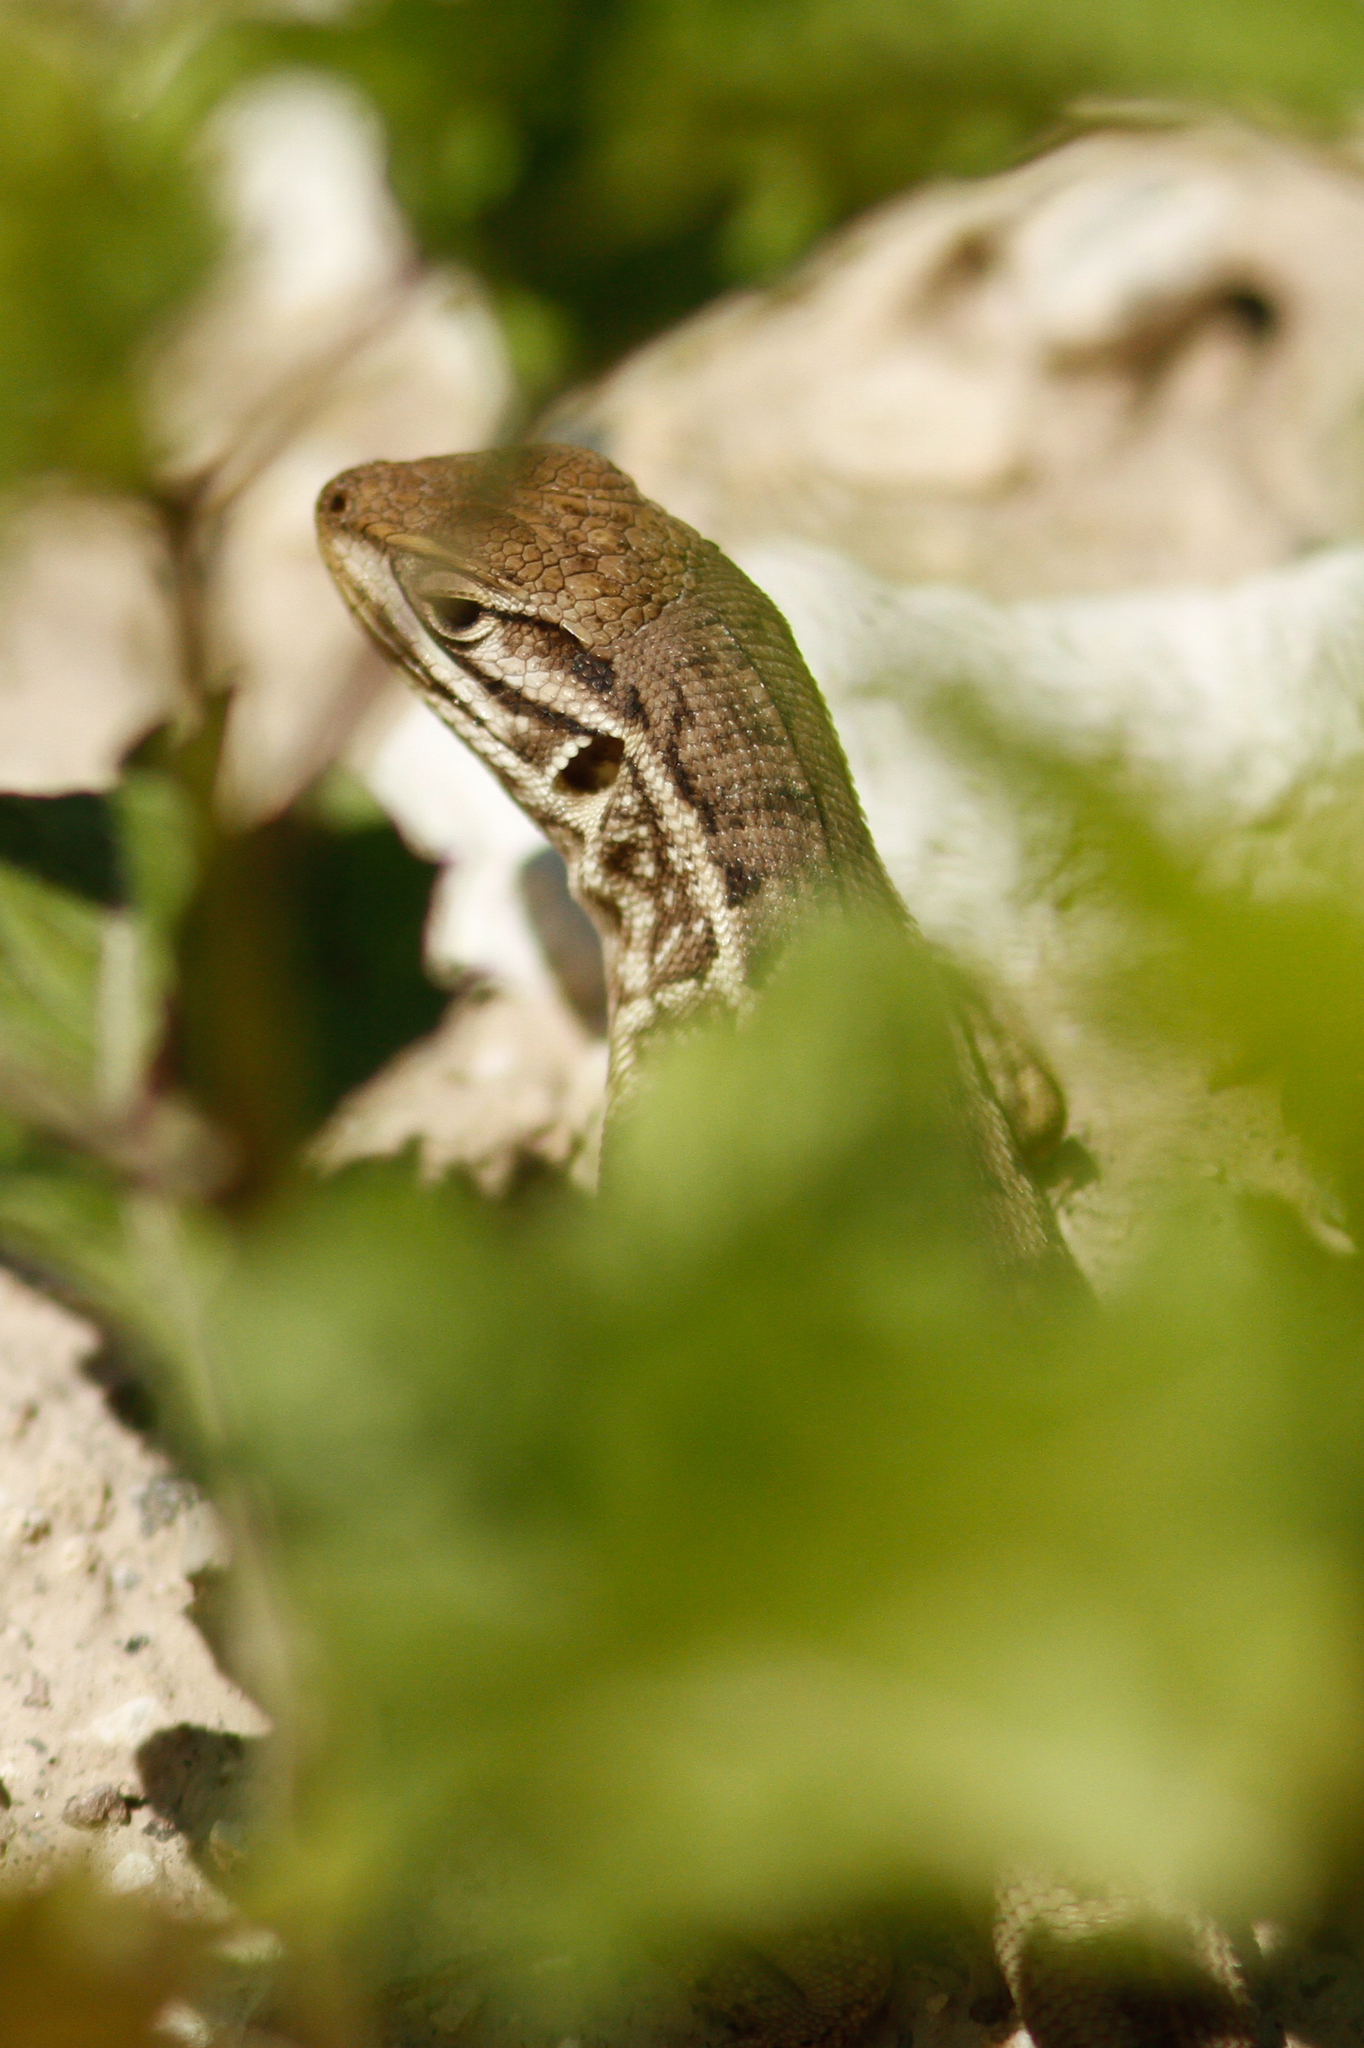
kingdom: Animalia
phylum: Chordata
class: Squamata
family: Tropiduridae
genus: Stenocercus
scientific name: Stenocercus guentheri
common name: Günther's whorltail iguana
